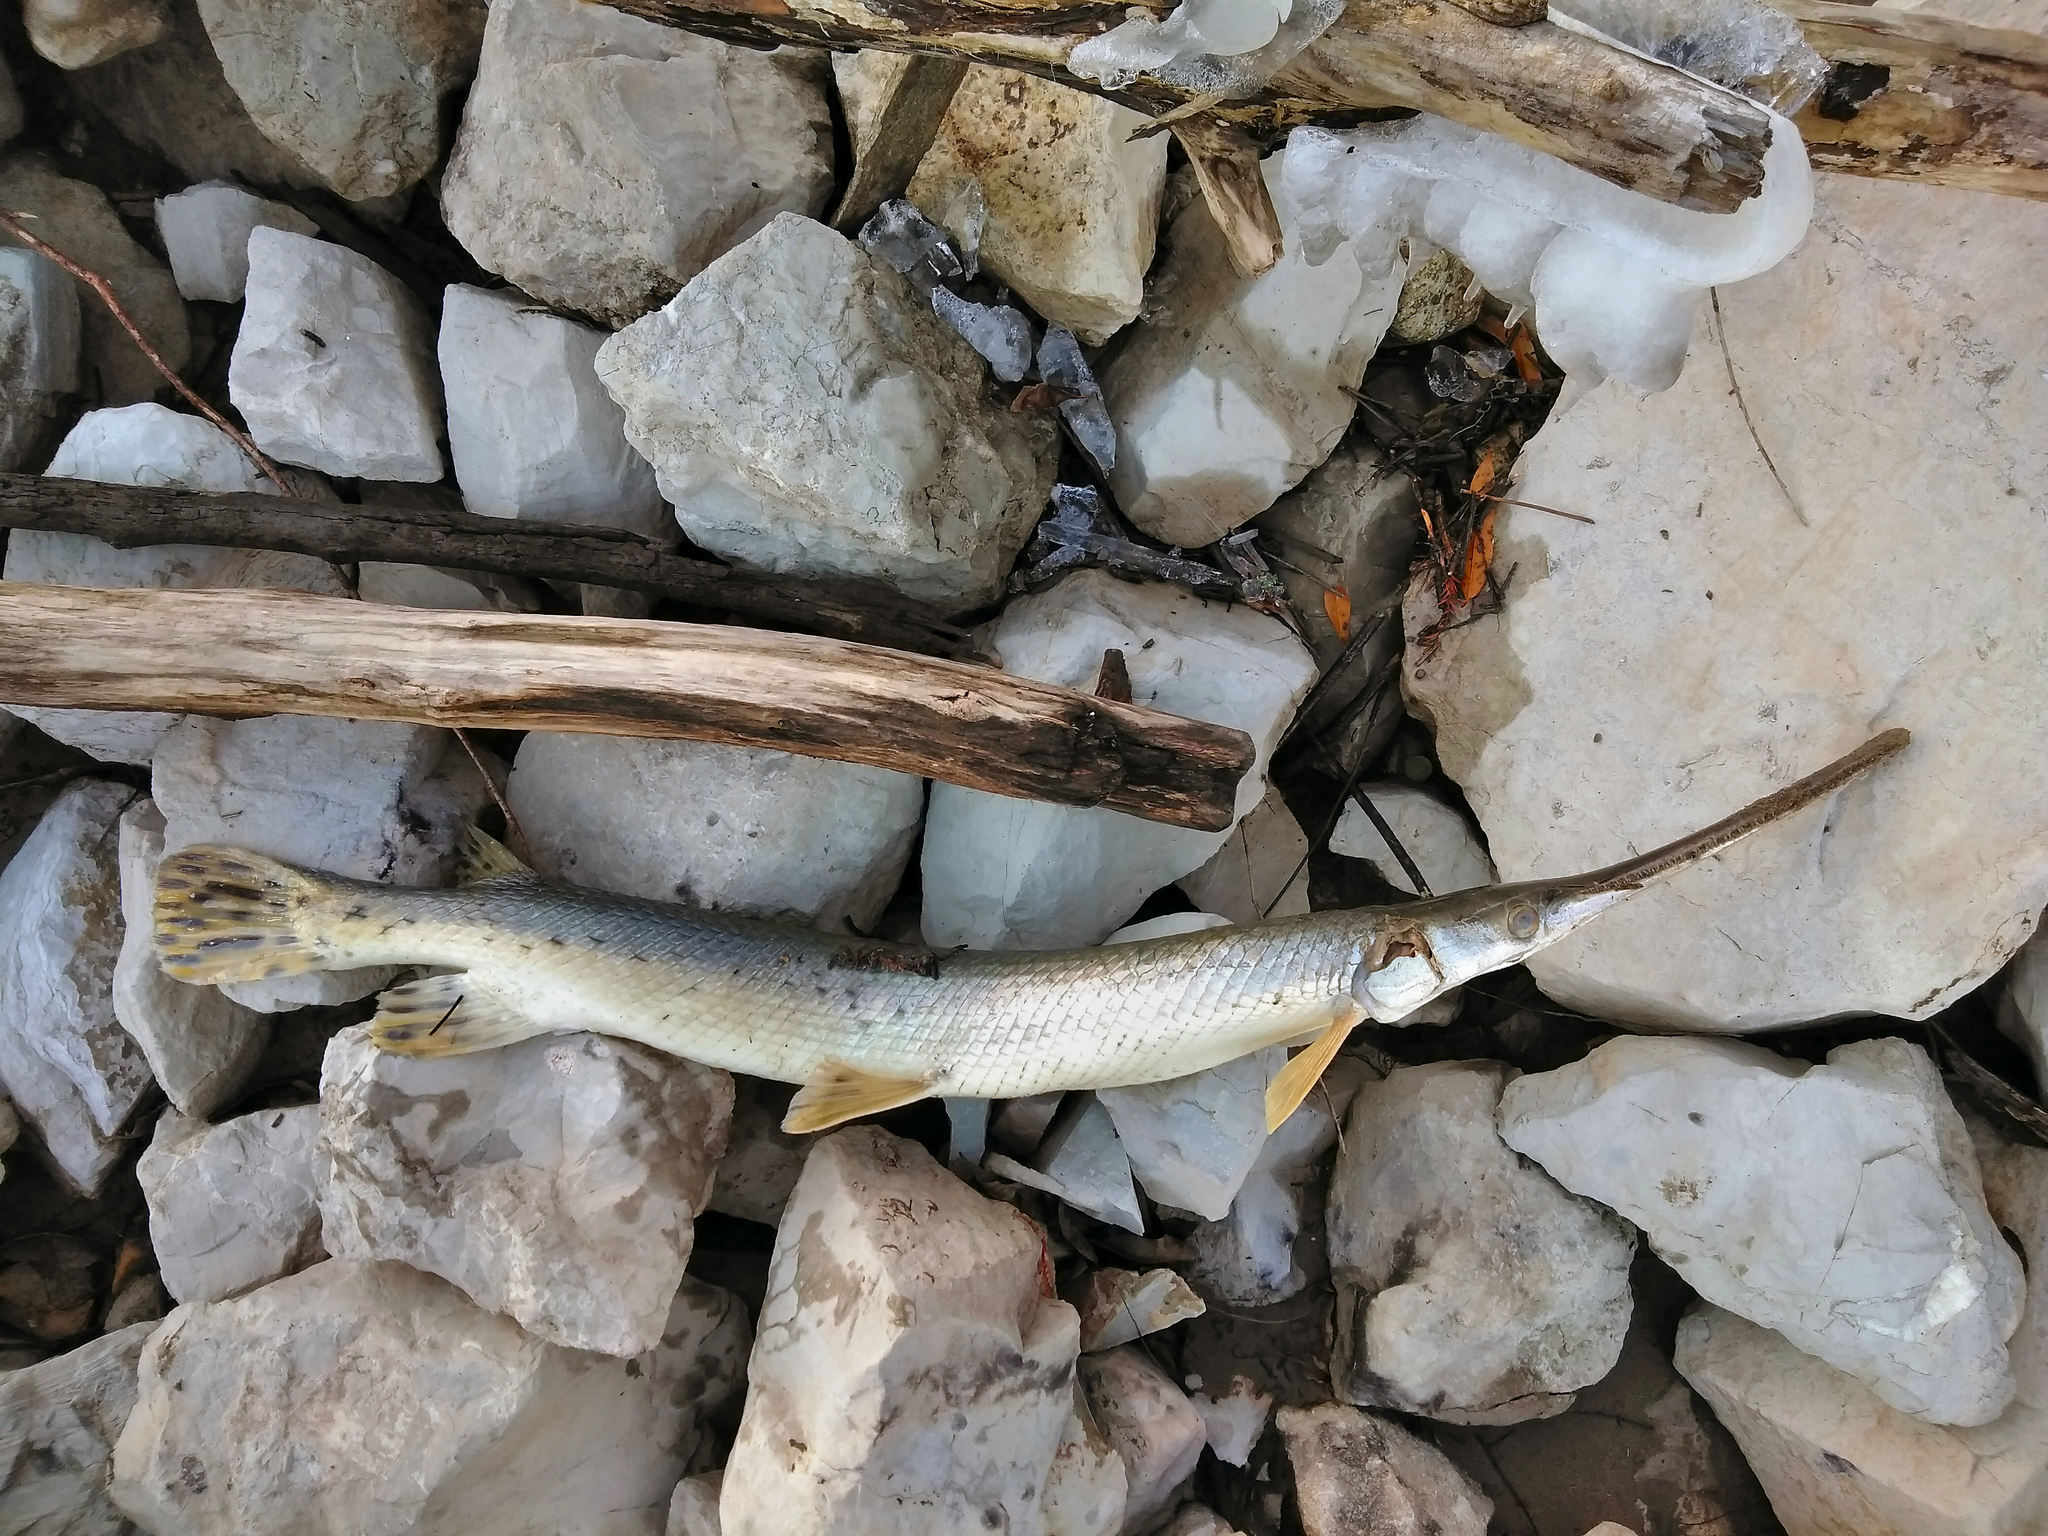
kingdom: Animalia
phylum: Chordata
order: Lepisosteiformes
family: Lepisosteidae
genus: Lepisosteus
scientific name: Lepisosteus osseus
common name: Longnose gar
